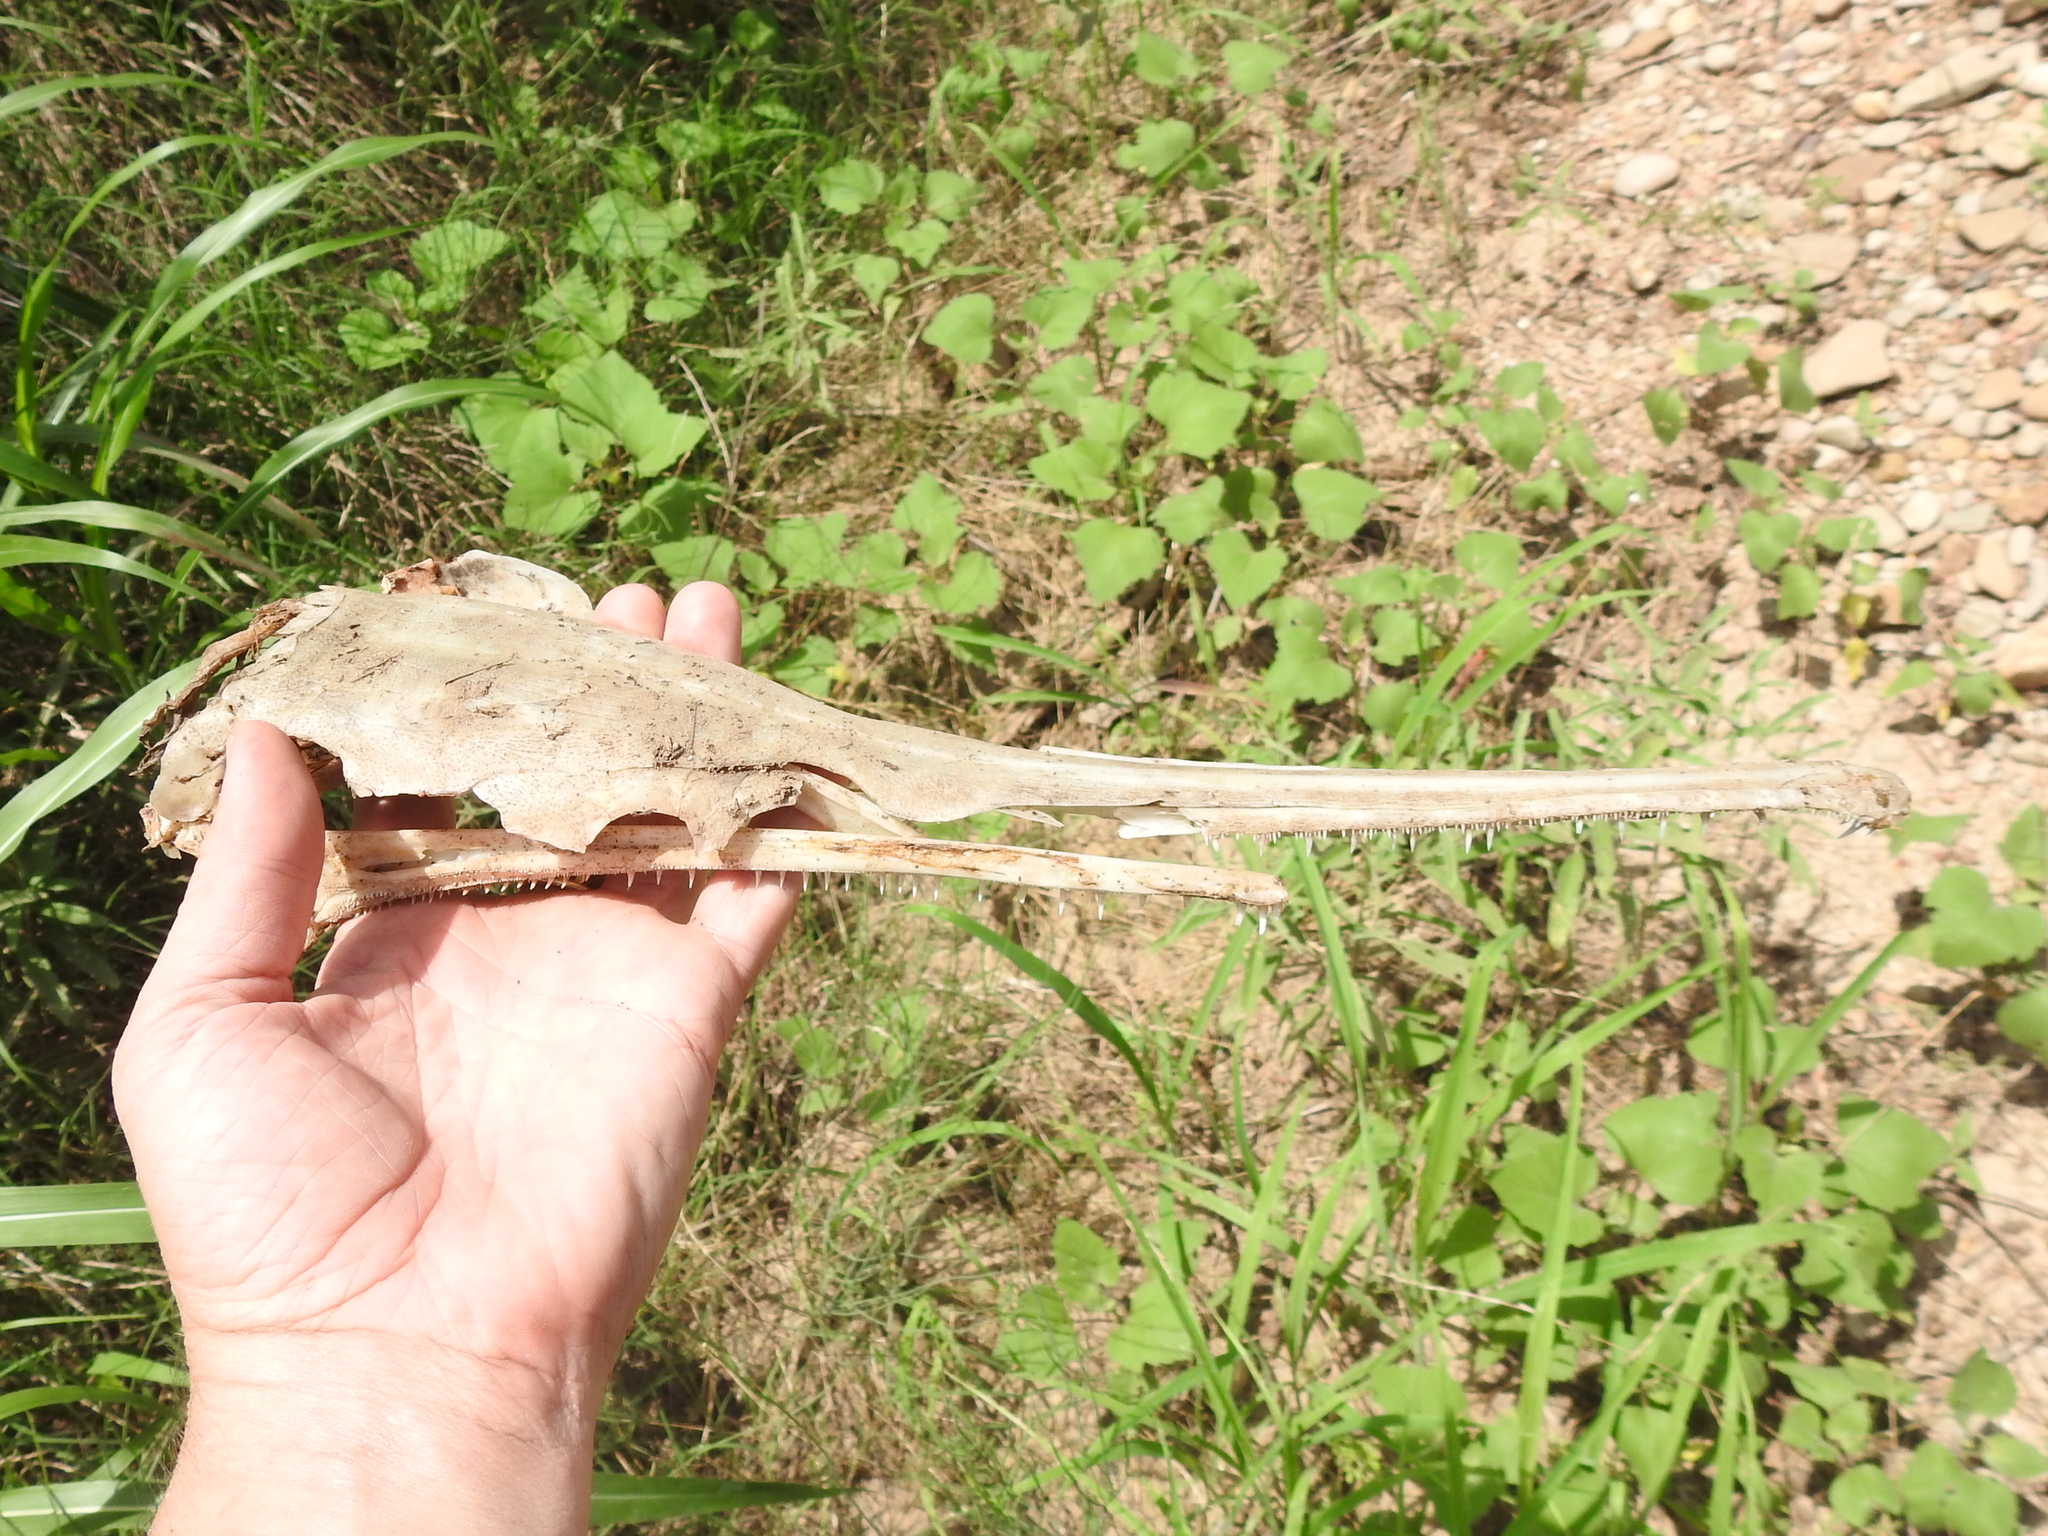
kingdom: Animalia
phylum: Chordata
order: Lepisosteiformes
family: Lepisosteidae
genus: Lepisosteus
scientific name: Lepisosteus osseus
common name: Longnose gar
